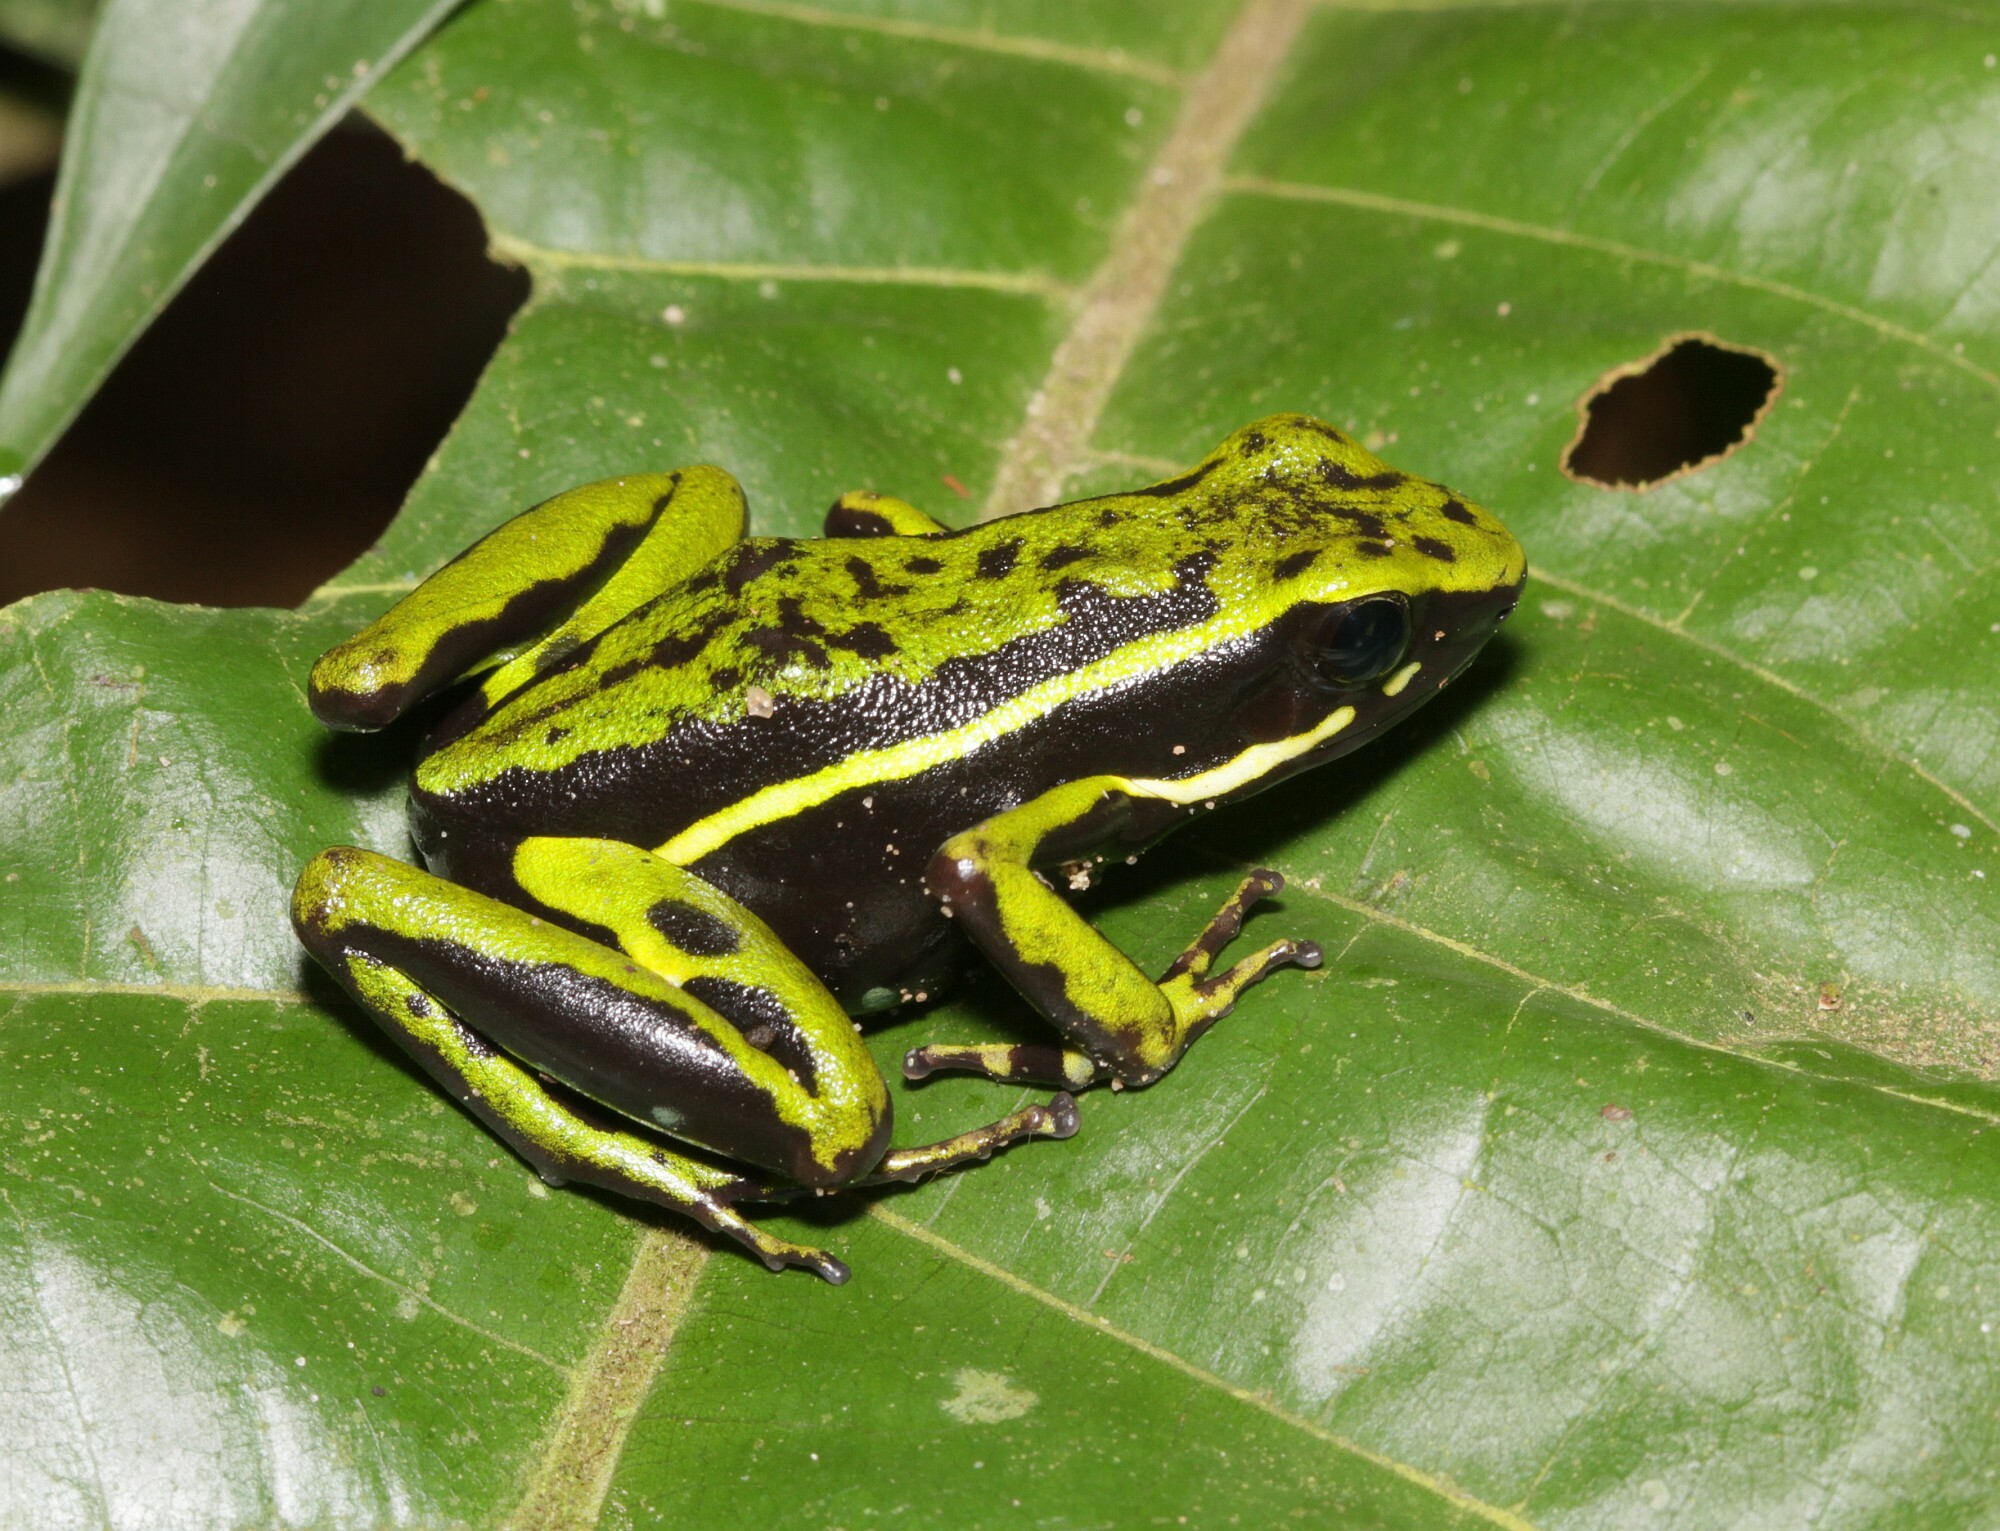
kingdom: Animalia
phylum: Chordata
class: Amphibia
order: Anura
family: Dendrobatidae
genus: Ameerega
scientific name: Ameerega trivittata
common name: Three-striped arrow-poison frog
